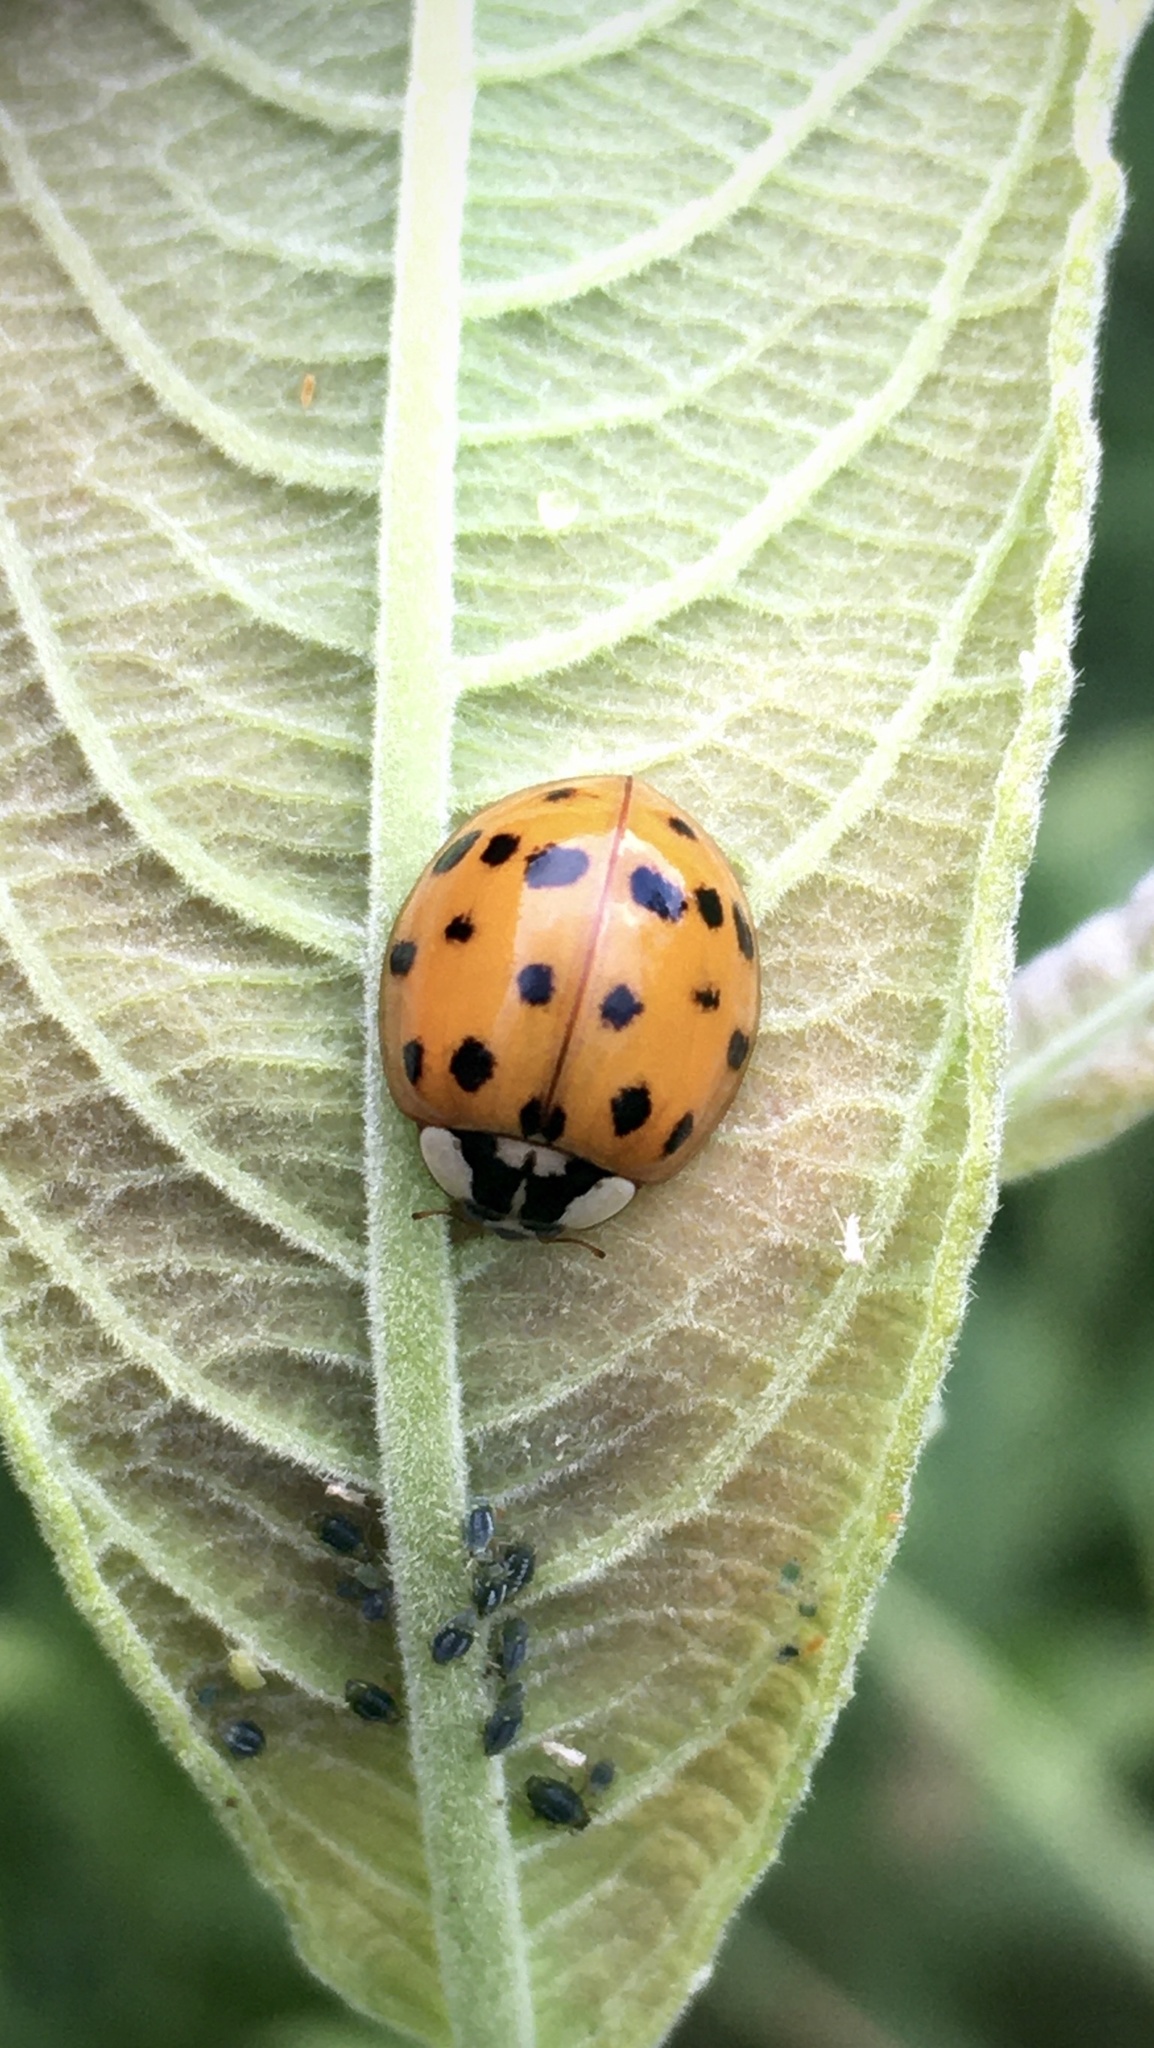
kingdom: Animalia
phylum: Arthropoda
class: Insecta
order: Coleoptera
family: Coccinellidae
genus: Harmonia
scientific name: Harmonia axyridis
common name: Harlequin ladybird
